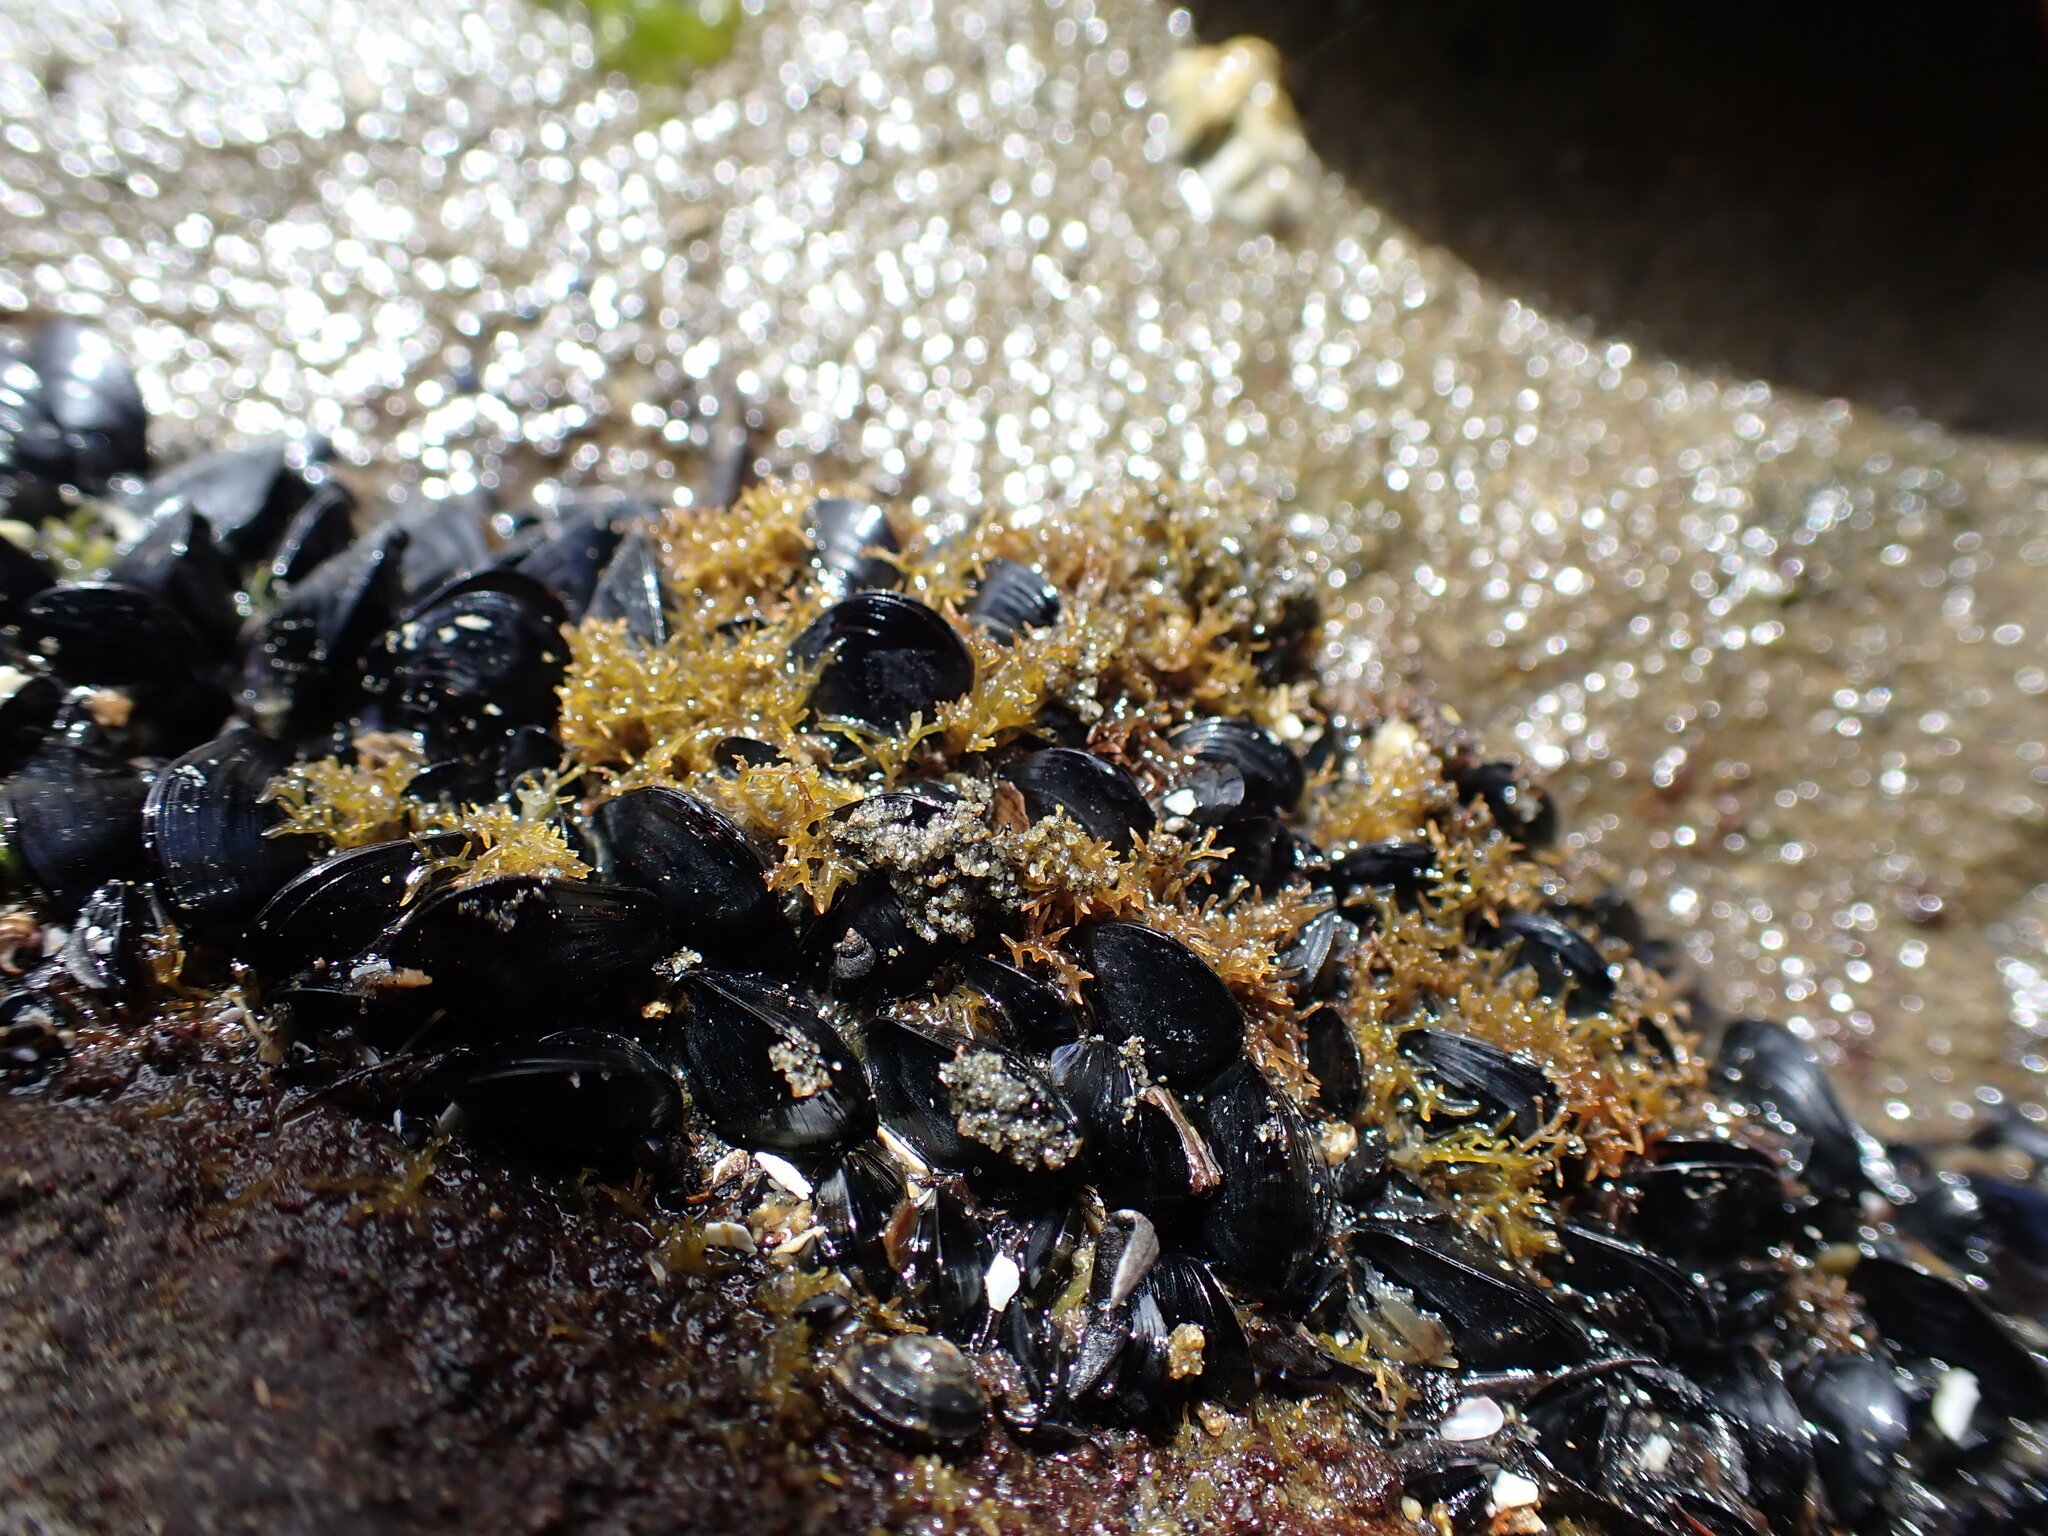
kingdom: Plantae
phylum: Rhodophyta
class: Florideophyceae
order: Gelidiales
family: Gelidiaceae
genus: Capreolia
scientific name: Capreolia implexa
